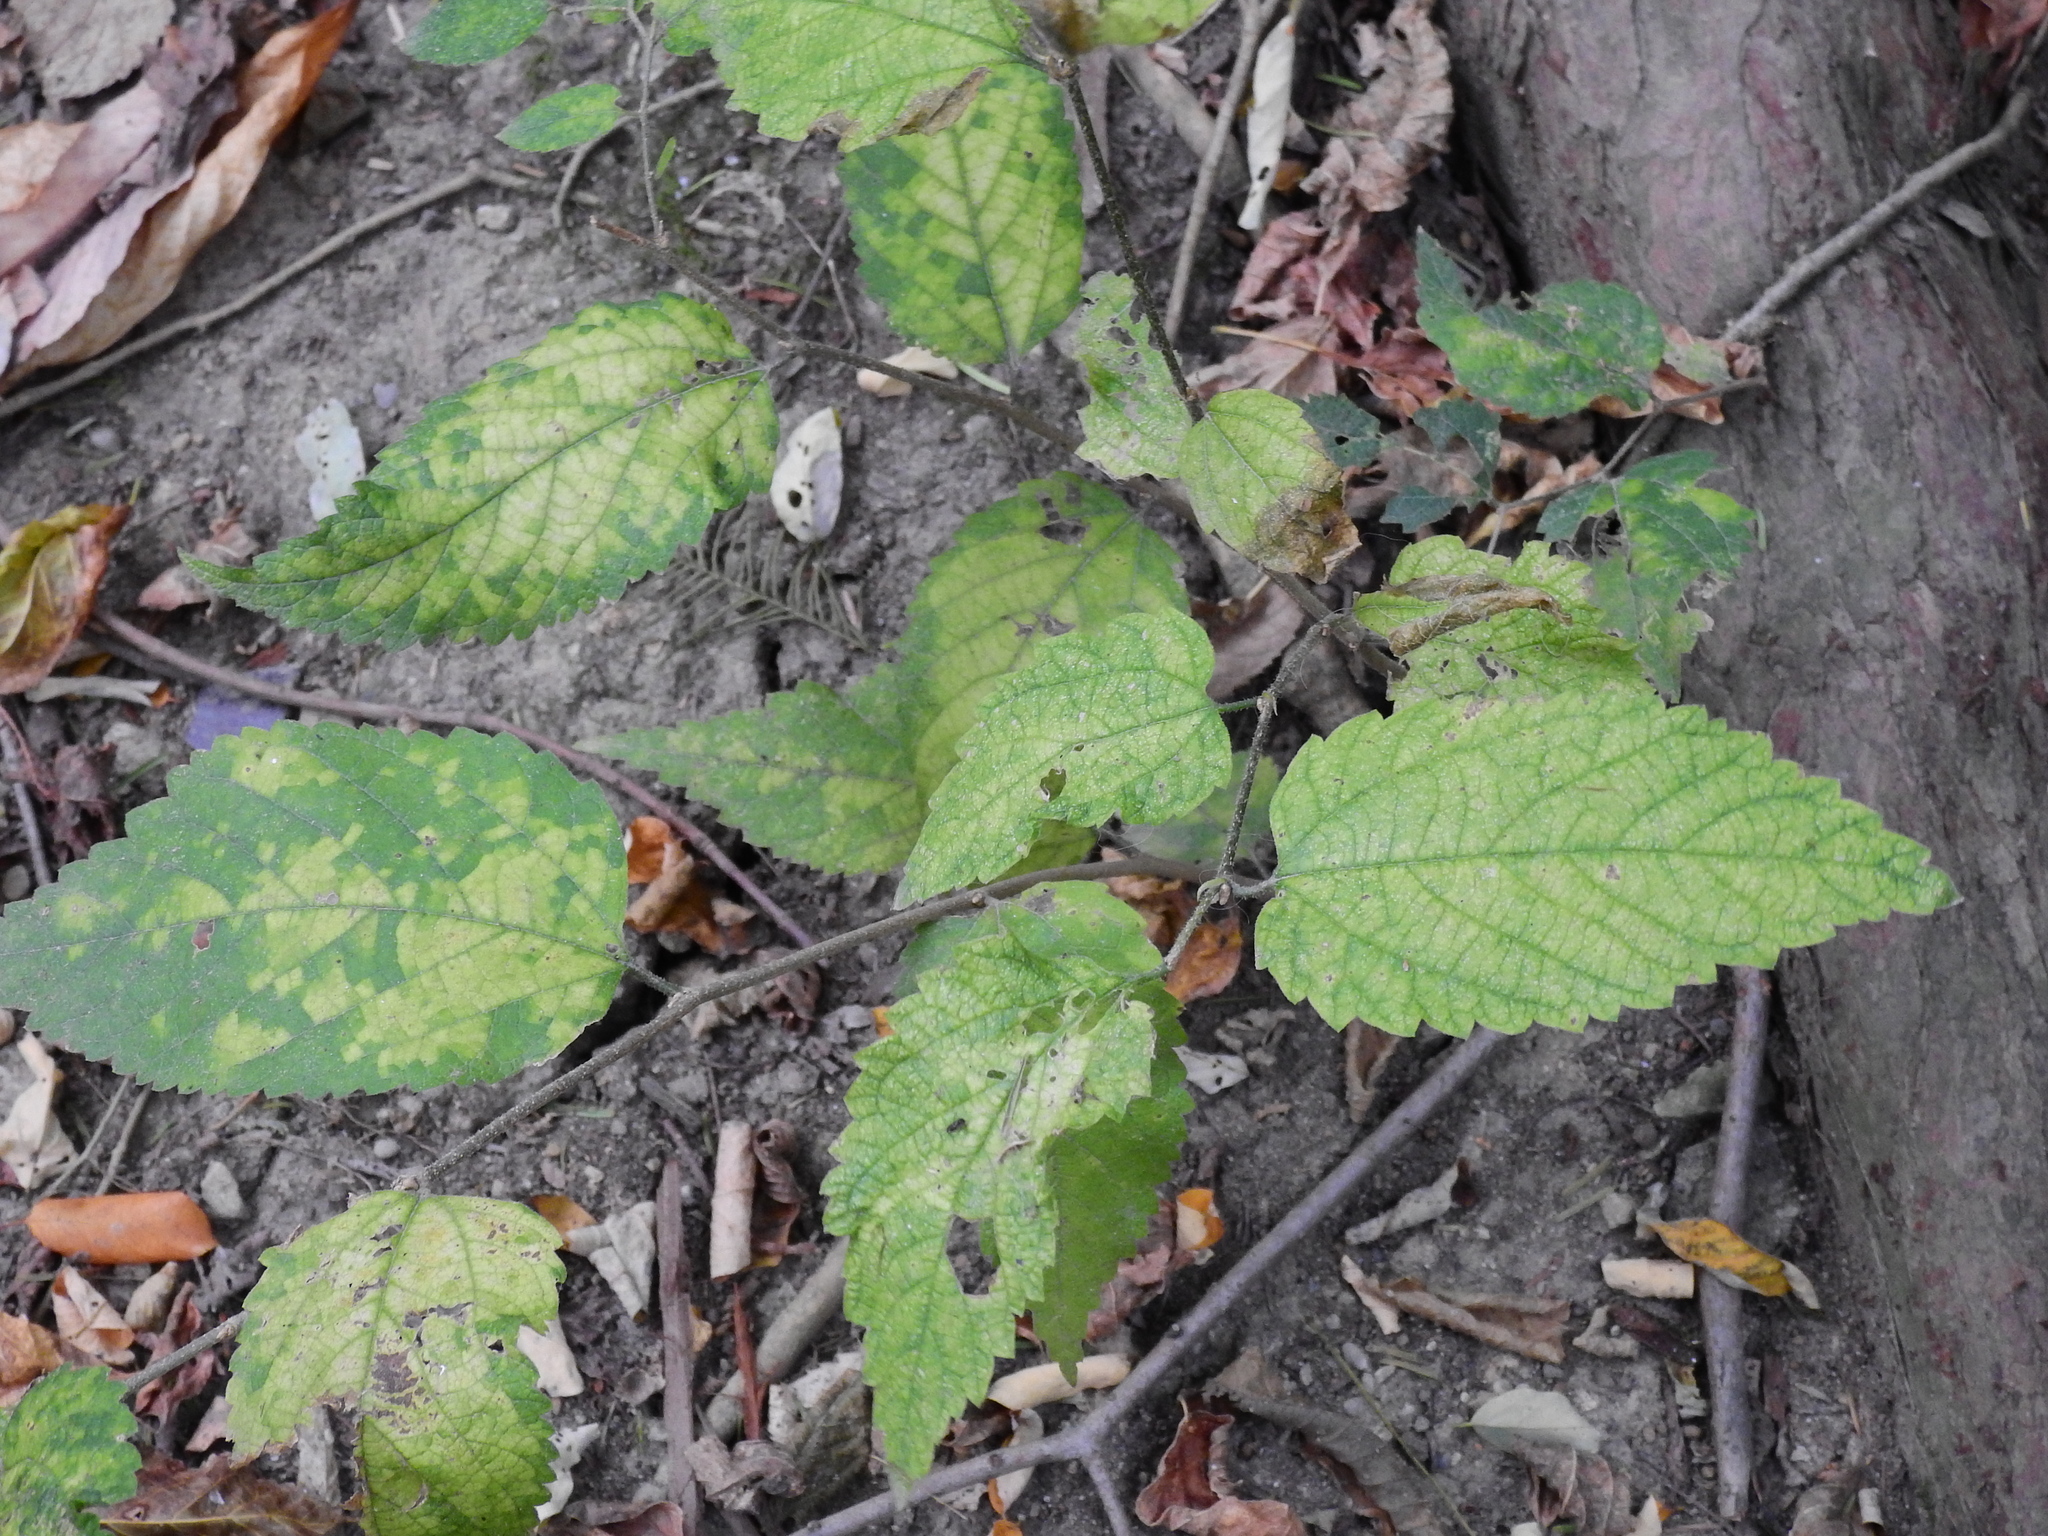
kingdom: Plantae
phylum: Tracheophyta
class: Magnoliopsida
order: Rosales
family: Cannabaceae
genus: Celtis
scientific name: Celtis occidentalis
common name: Common hackberry
